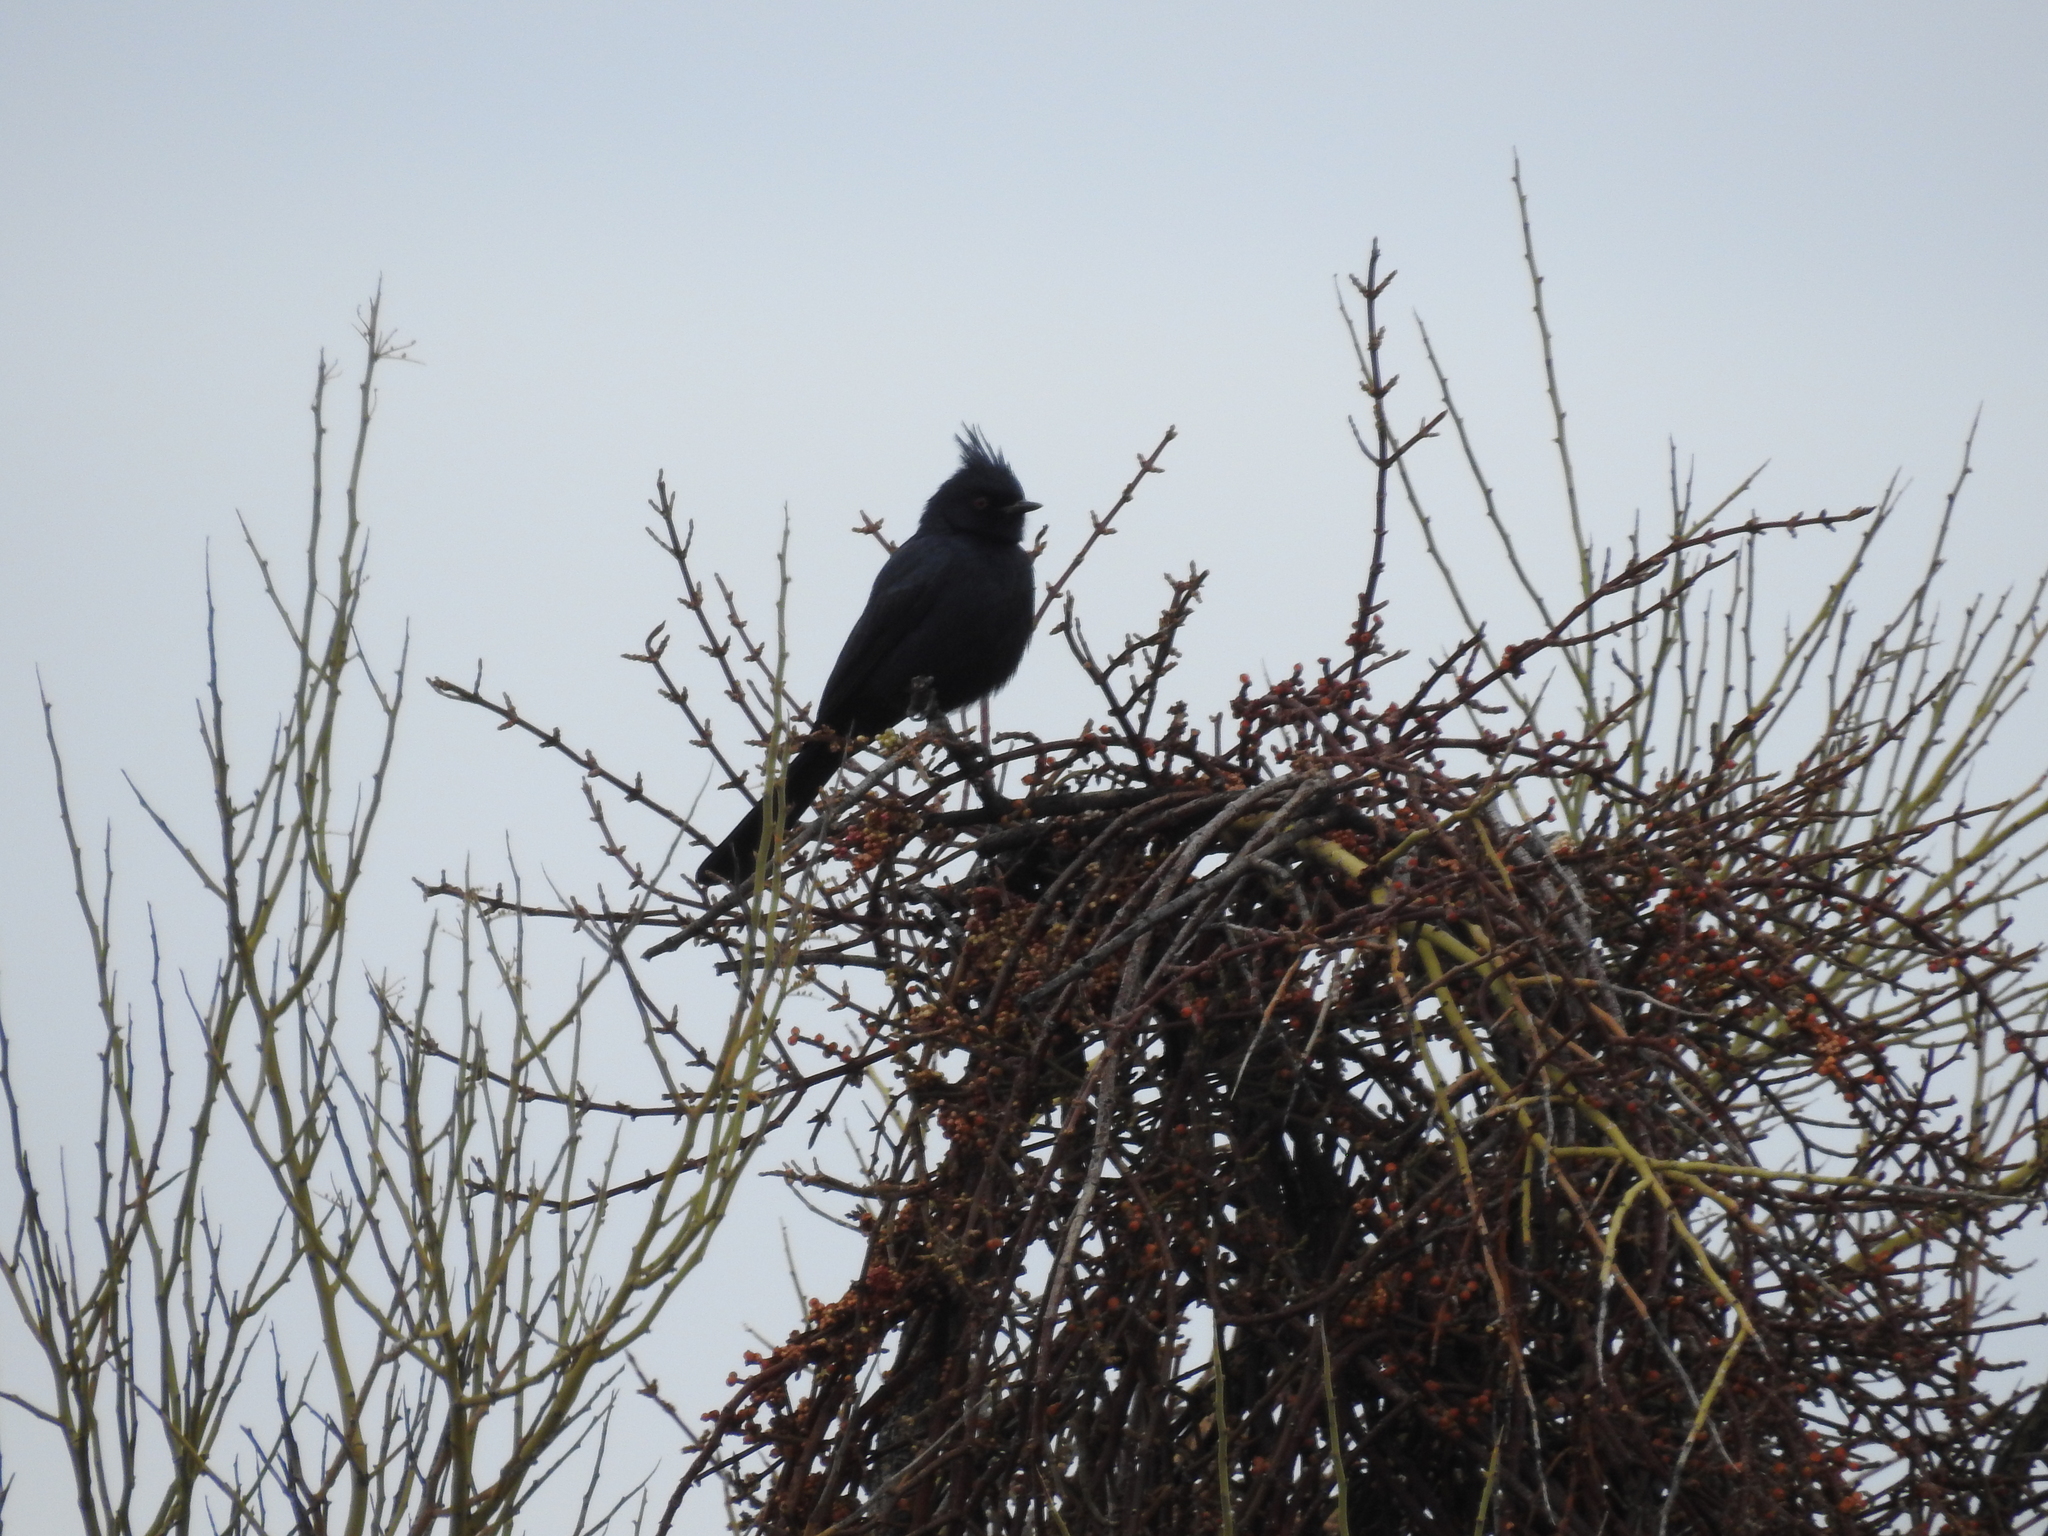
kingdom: Animalia
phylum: Chordata
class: Aves
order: Passeriformes
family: Ptilogonatidae
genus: Phainopepla
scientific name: Phainopepla nitens
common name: Phainopepla
